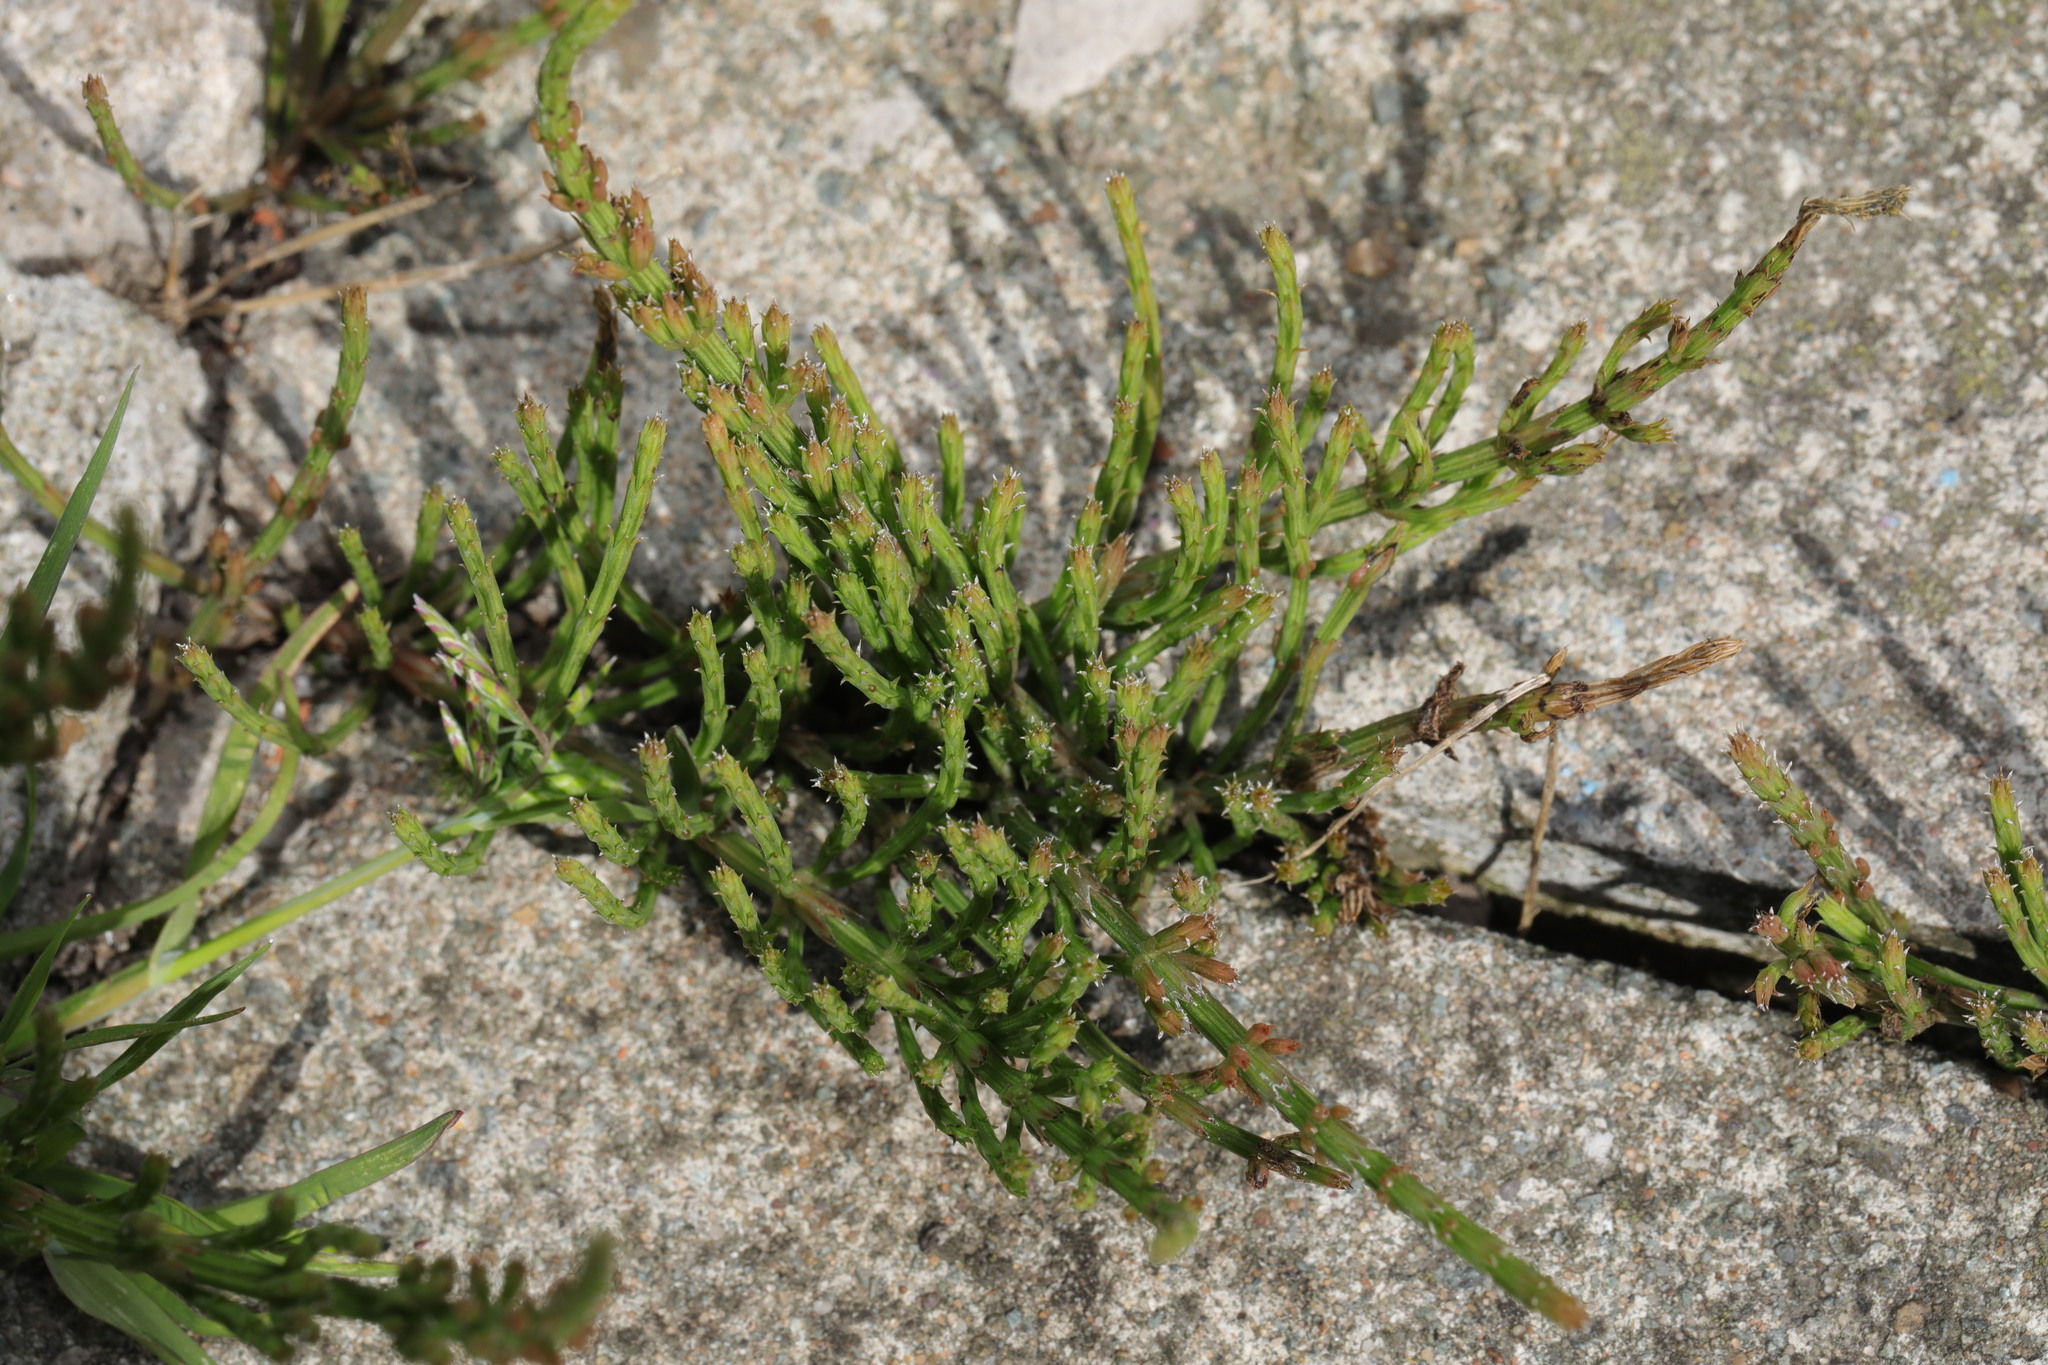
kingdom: Plantae
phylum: Tracheophyta
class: Polypodiopsida
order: Equisetales
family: Equisetaceae
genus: Equisetum
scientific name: Equisetum arvense
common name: Field horsetail
